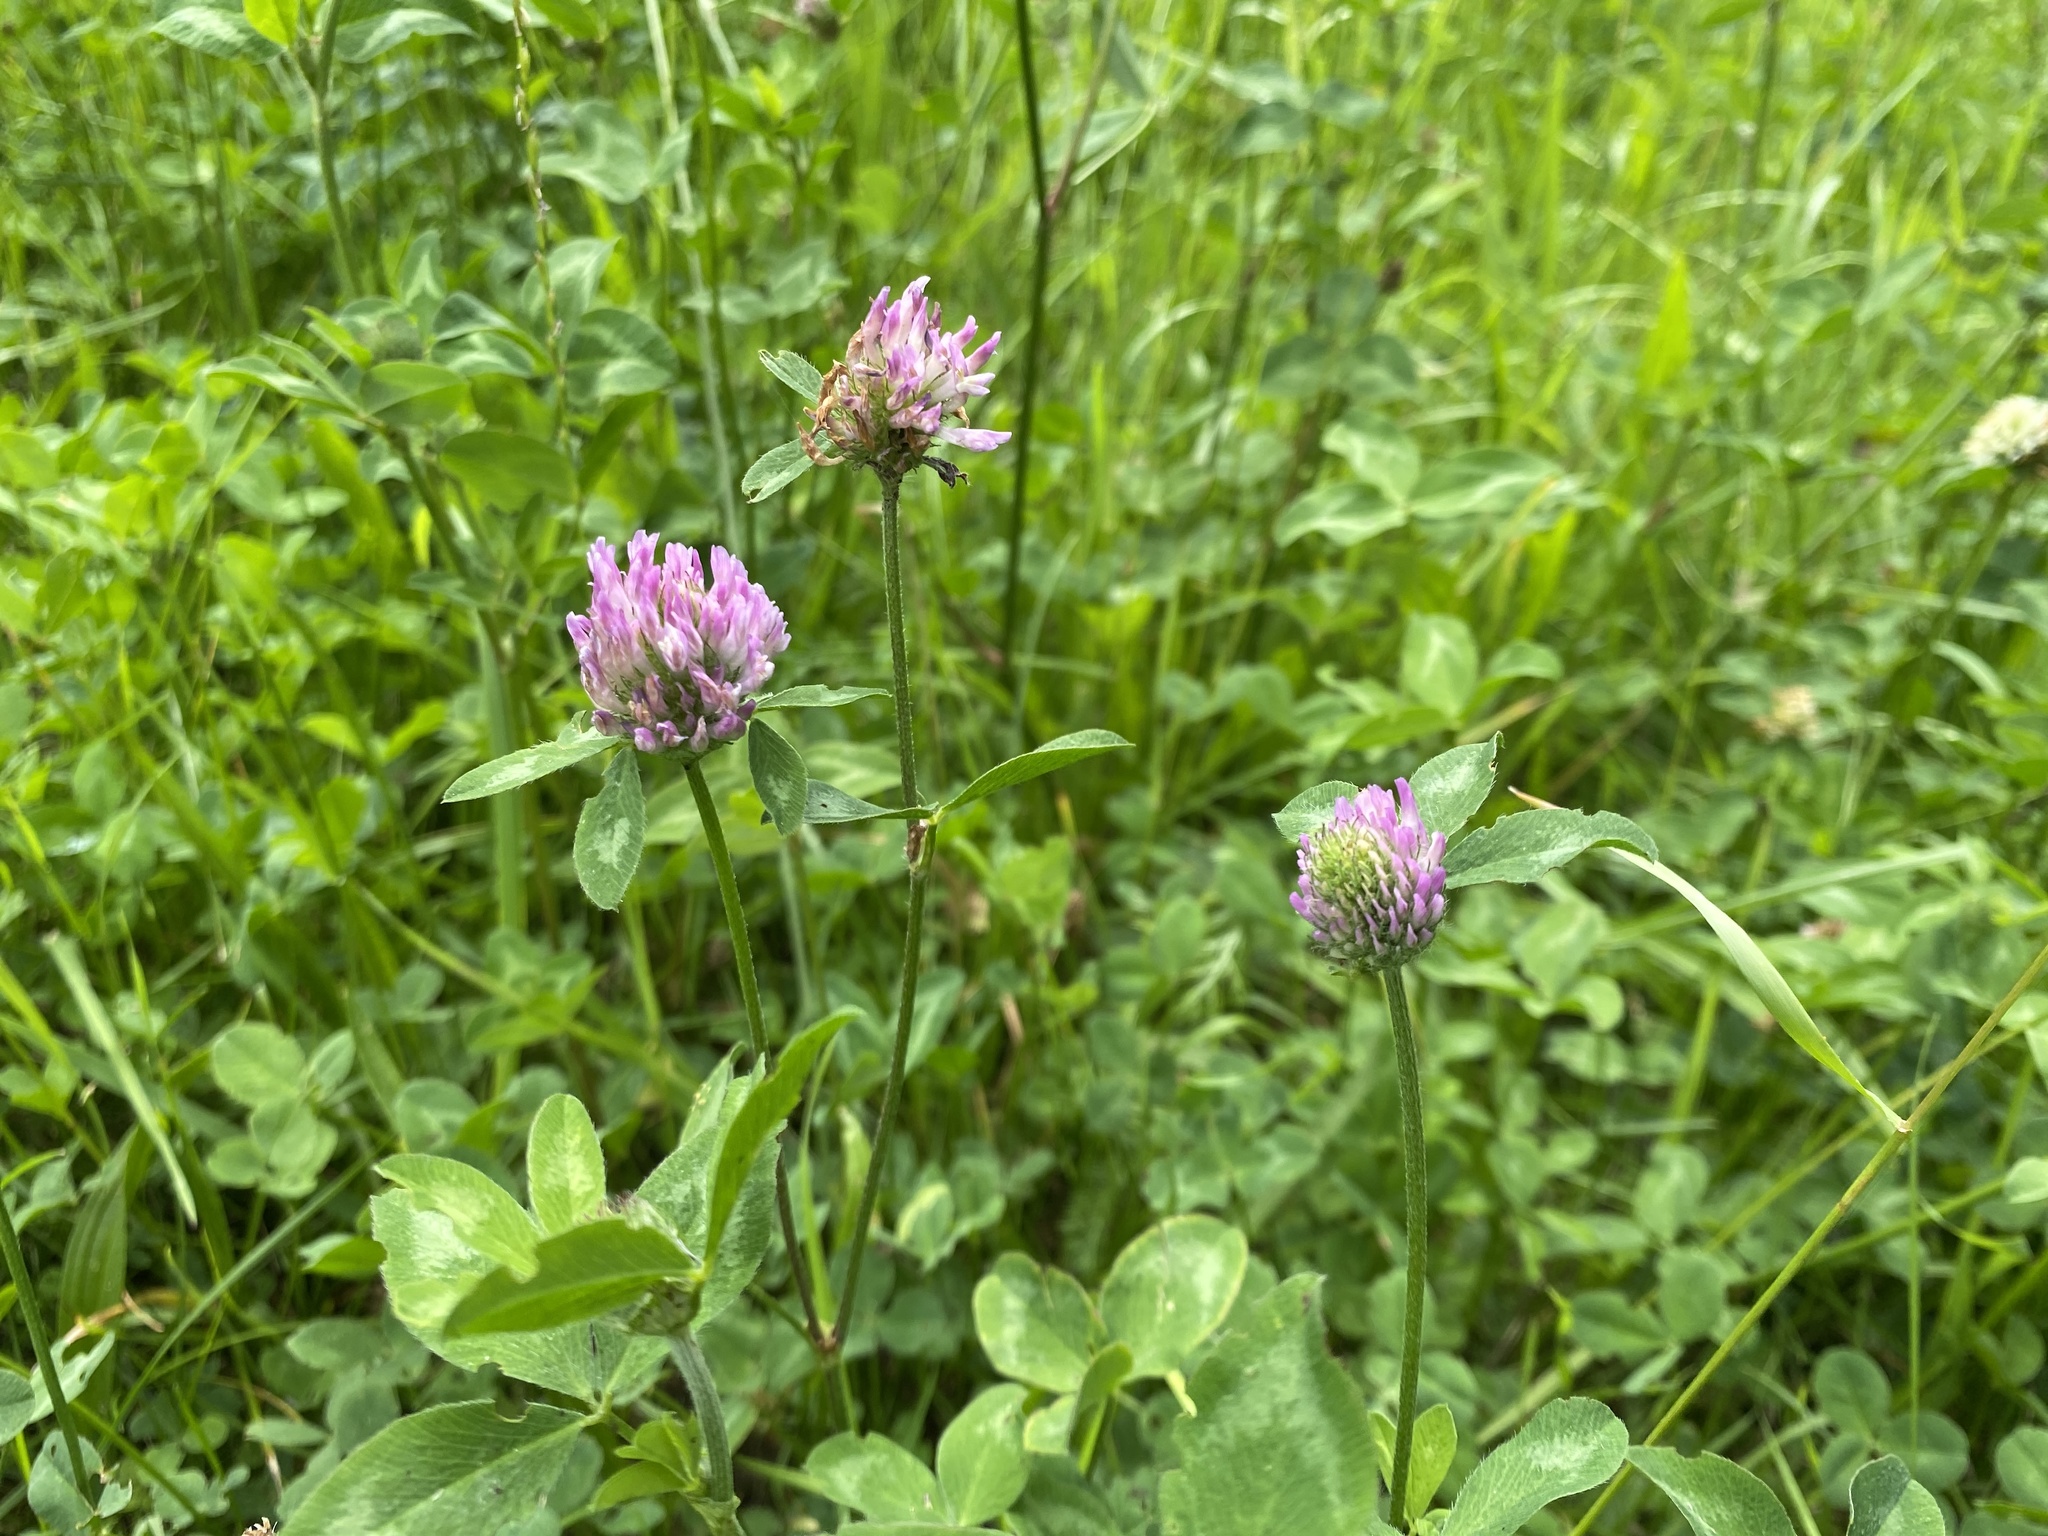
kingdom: Plantae
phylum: Tracheophyta
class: Magnoliopsida
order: Fabales
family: Fabaceae
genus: Trifolium
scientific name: Trifolium pratense
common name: Red clover
